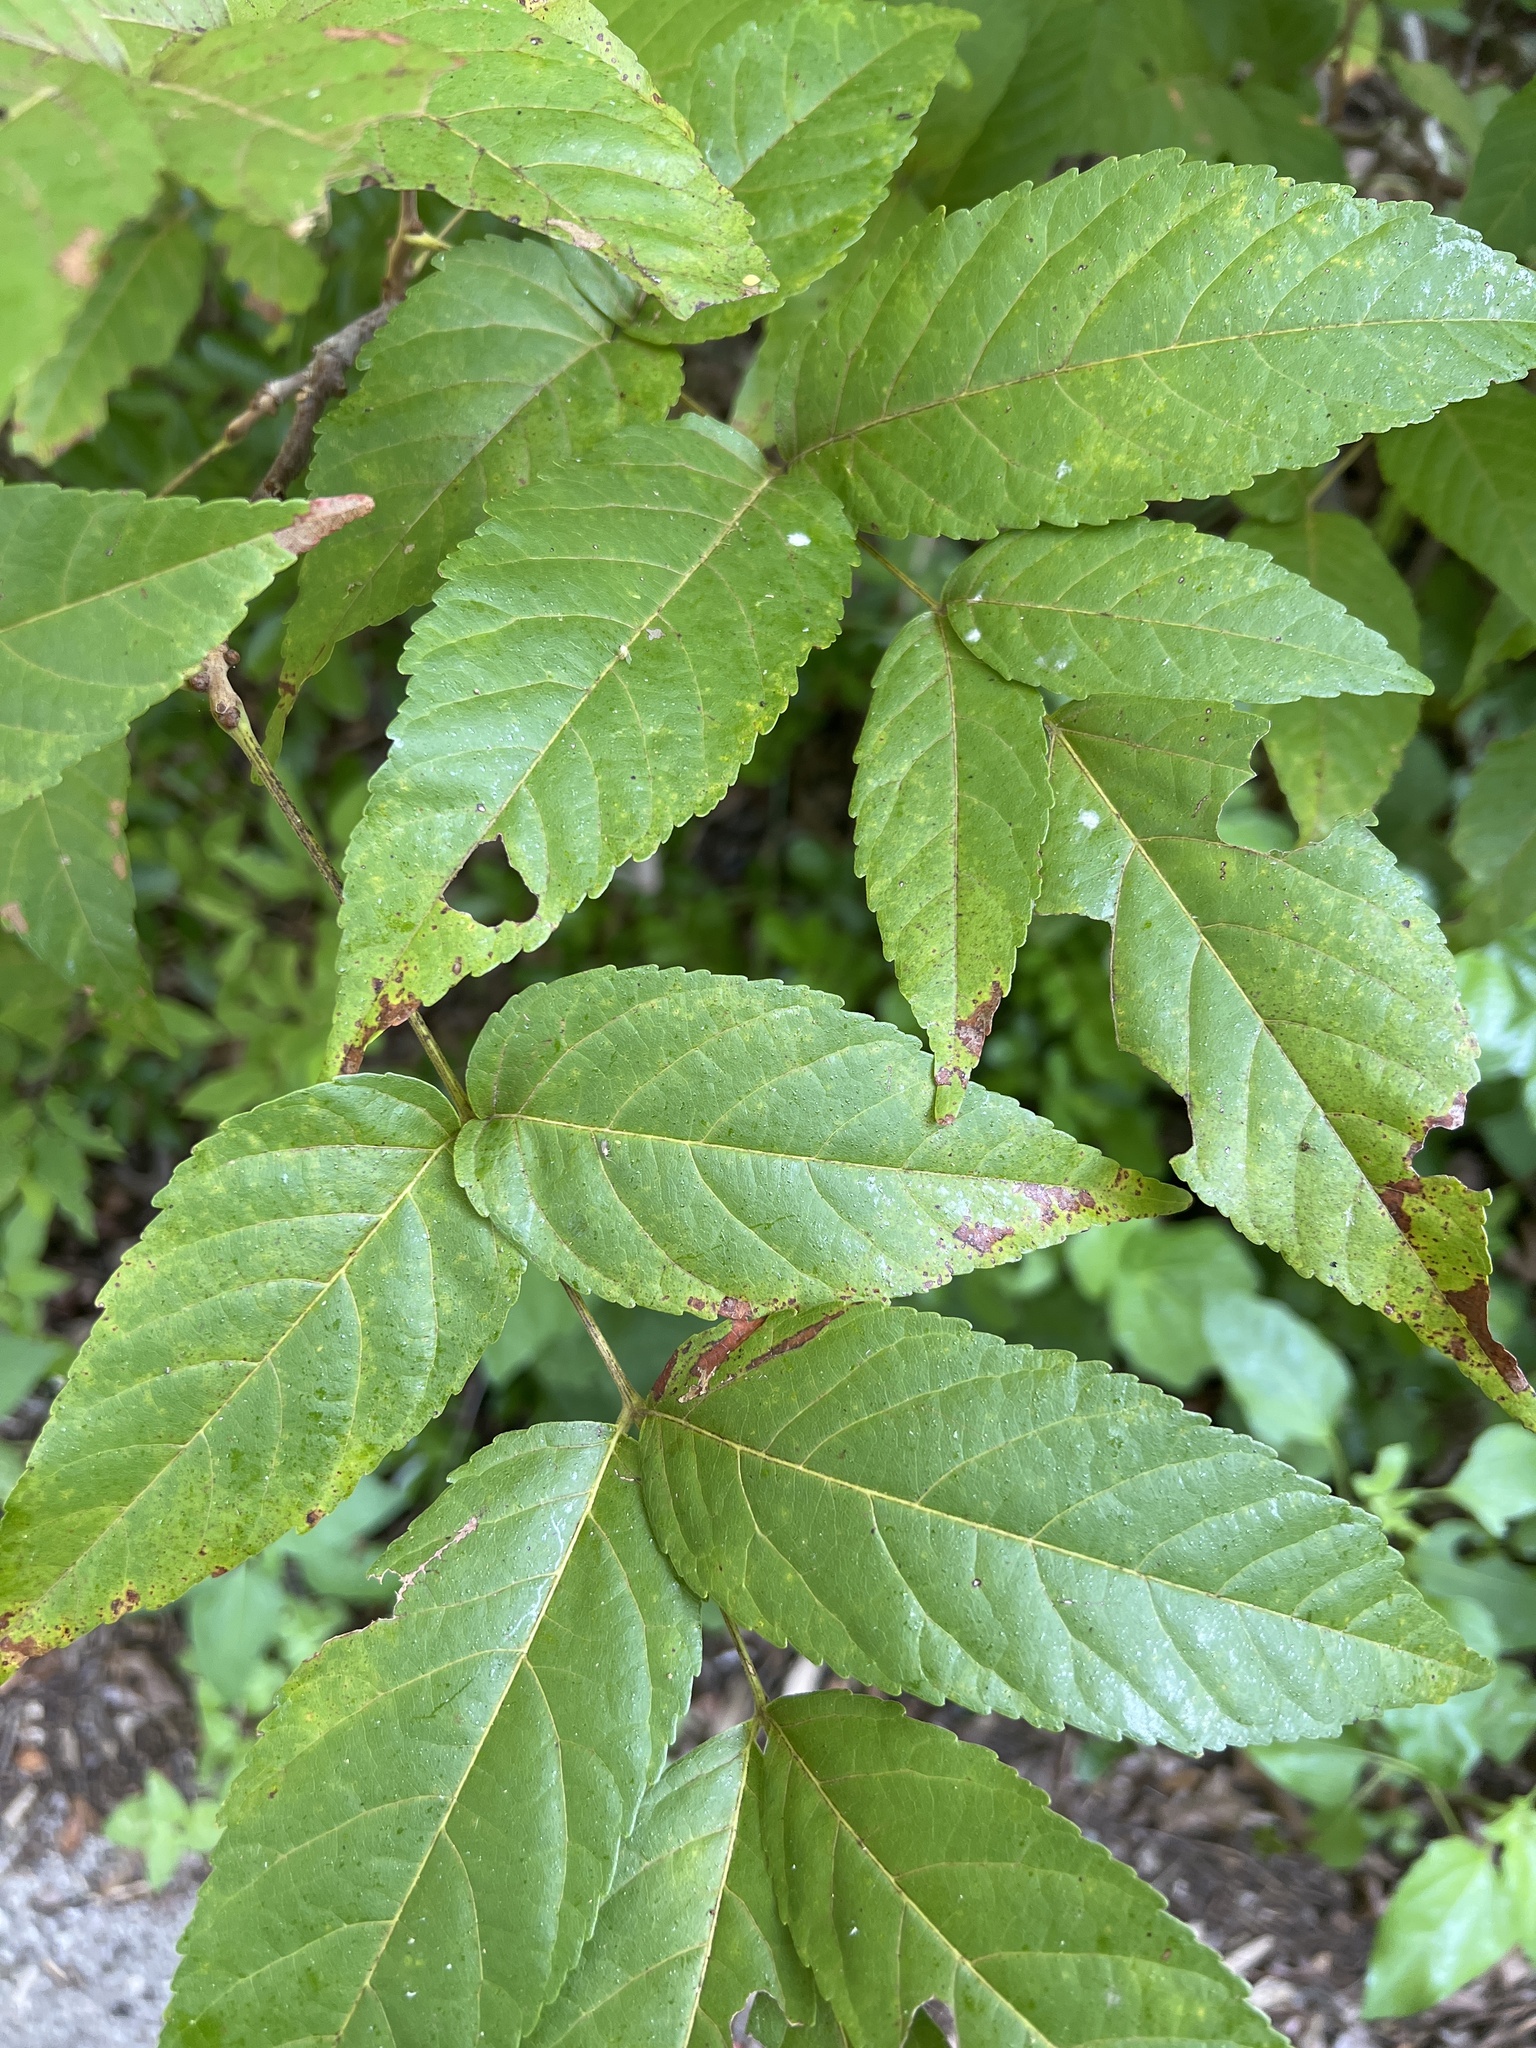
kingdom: Plantae
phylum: Tracheophyta
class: Magnoliopsida
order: Sapindales
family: Sapindaceae
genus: Ungnadia
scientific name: Ungnadia speciosa
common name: Texas-buckeye
